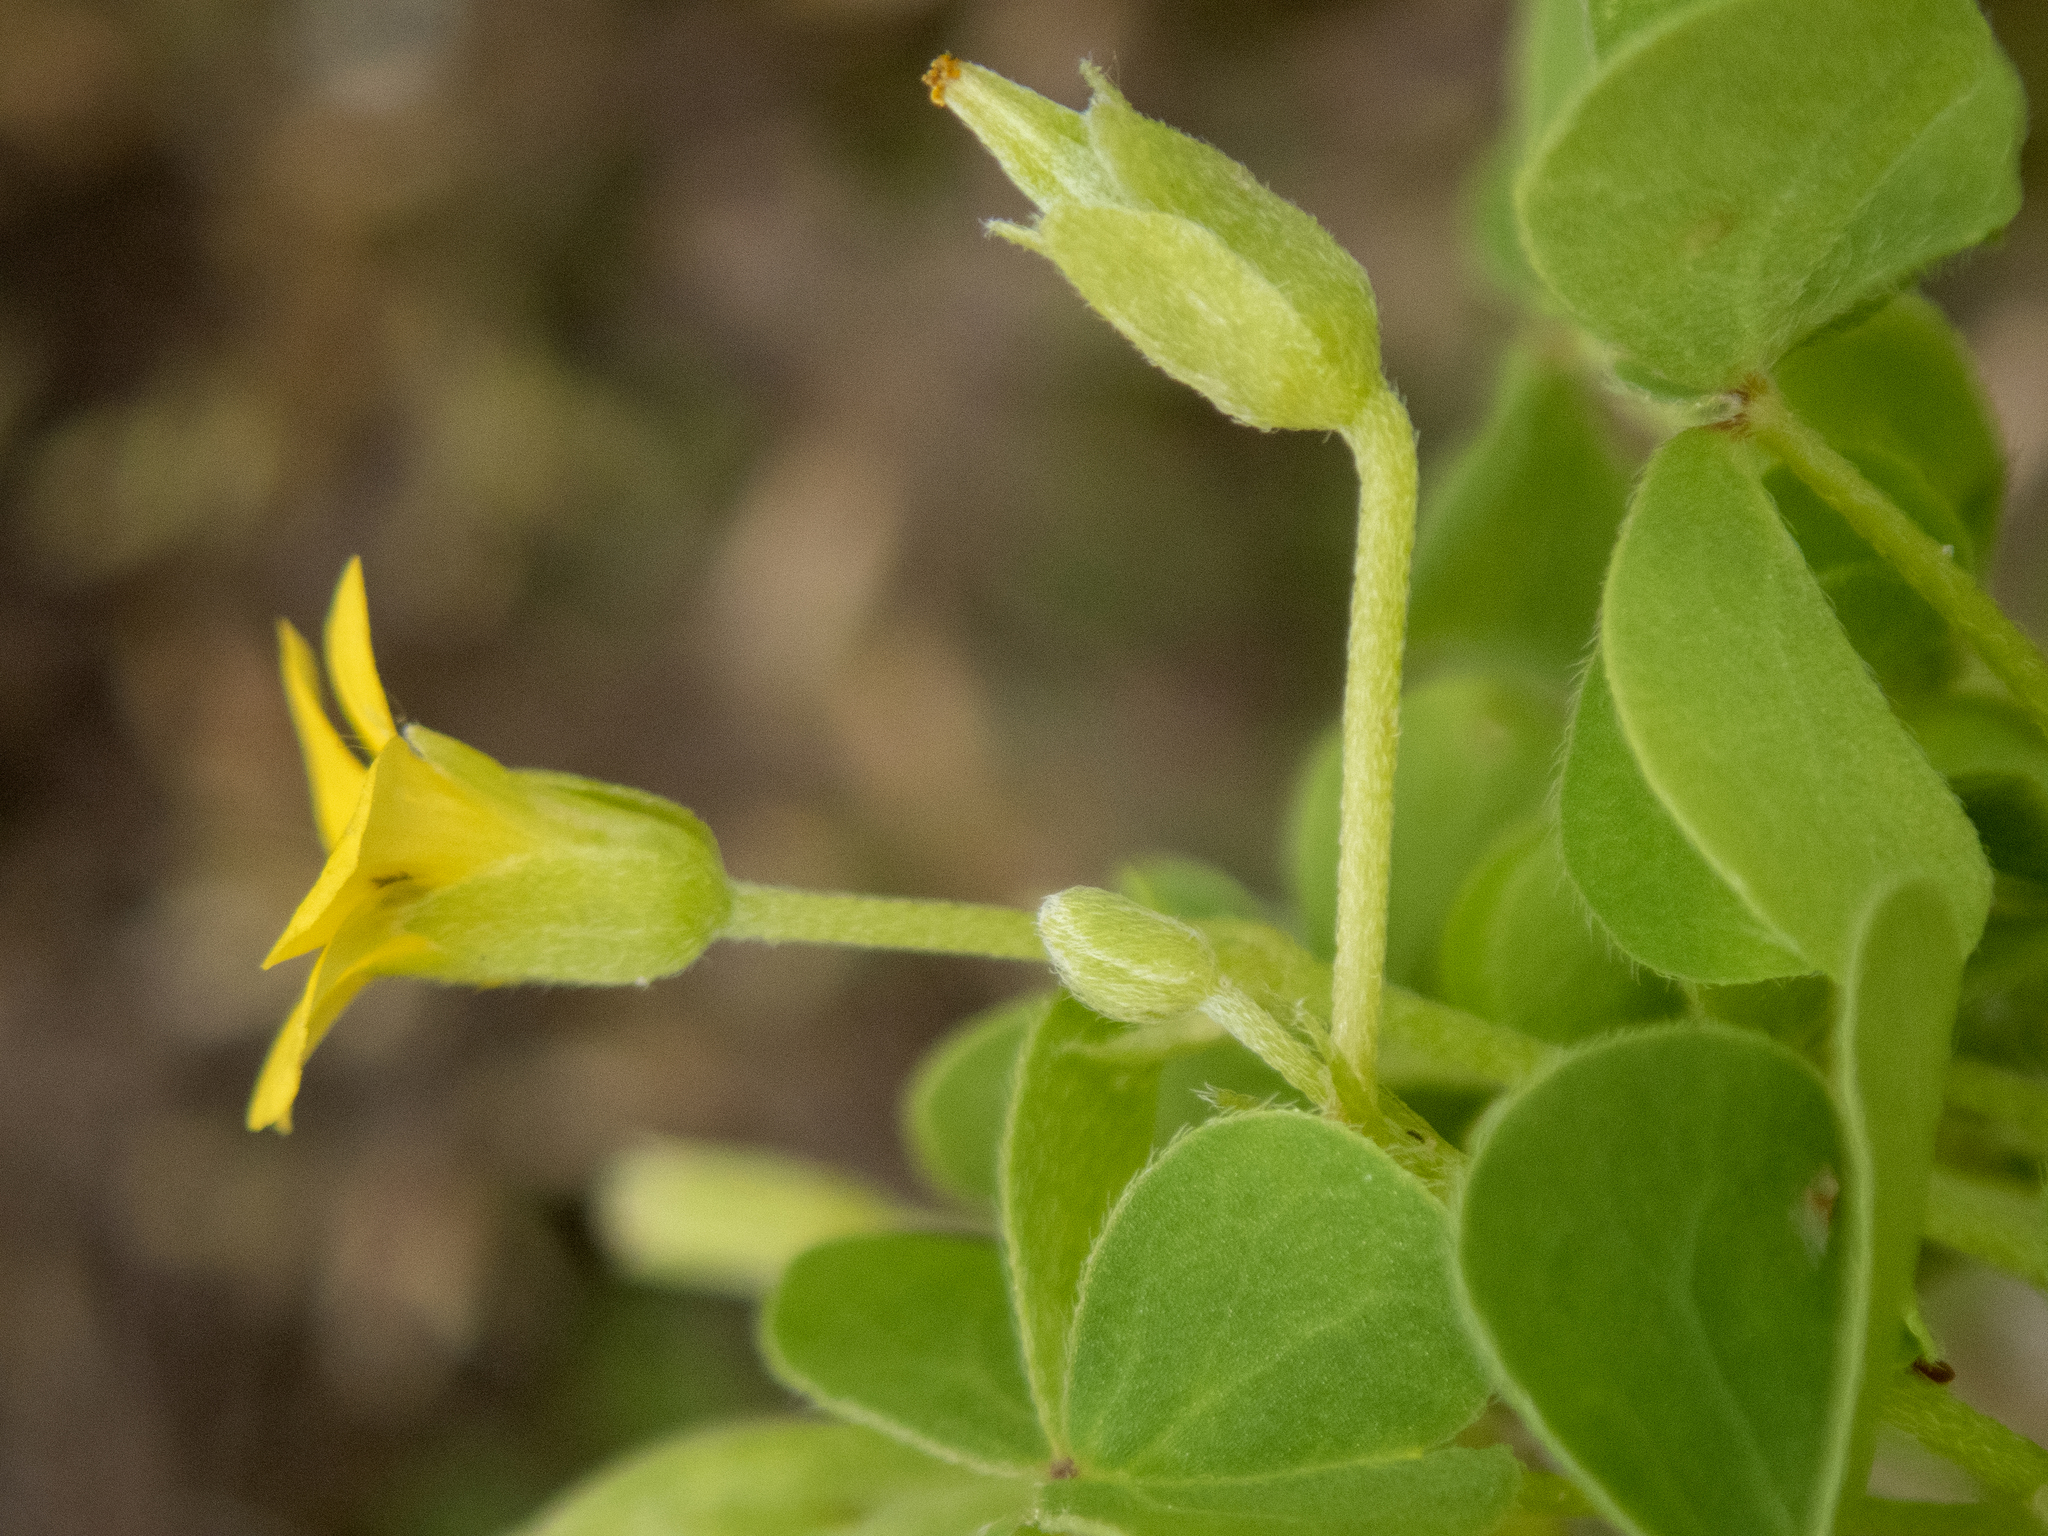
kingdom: Plantae
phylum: Tracheophyta
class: Magnoliopsida
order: Oxalidales
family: Oxalidaceae
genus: Oxalis
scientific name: Oxalis dillenii
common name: Sussex yellow-sorrel
